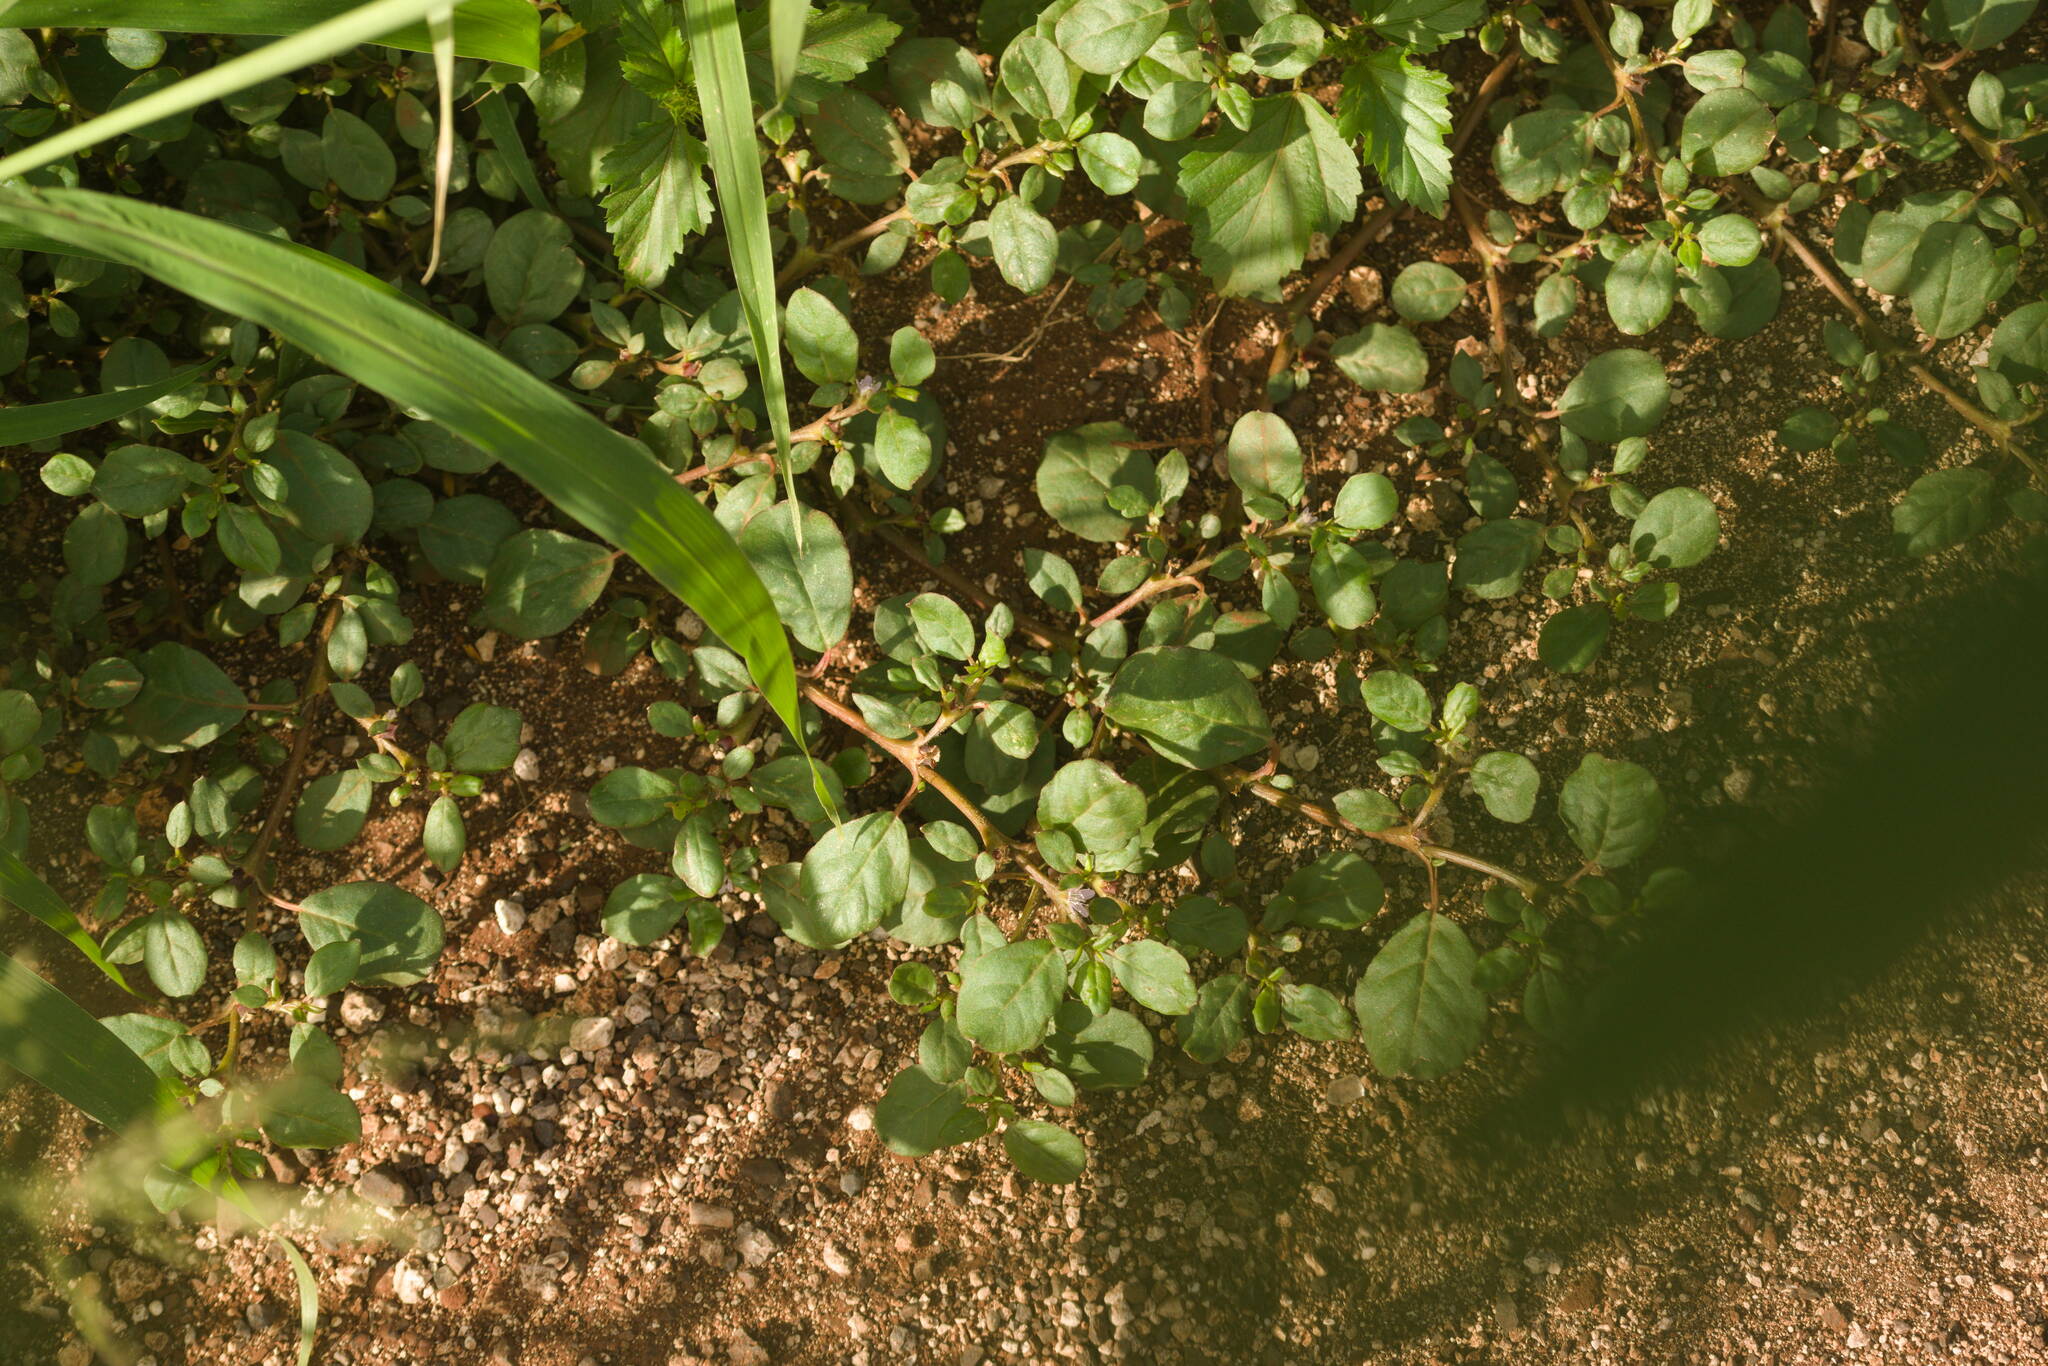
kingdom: Plantae
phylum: Tracheophyta
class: Magnoliopsida
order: Caryophyllales
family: Aizoaceae
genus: Trianthema
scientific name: Trianthema portulacastrum
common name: Desert horsepurslane
